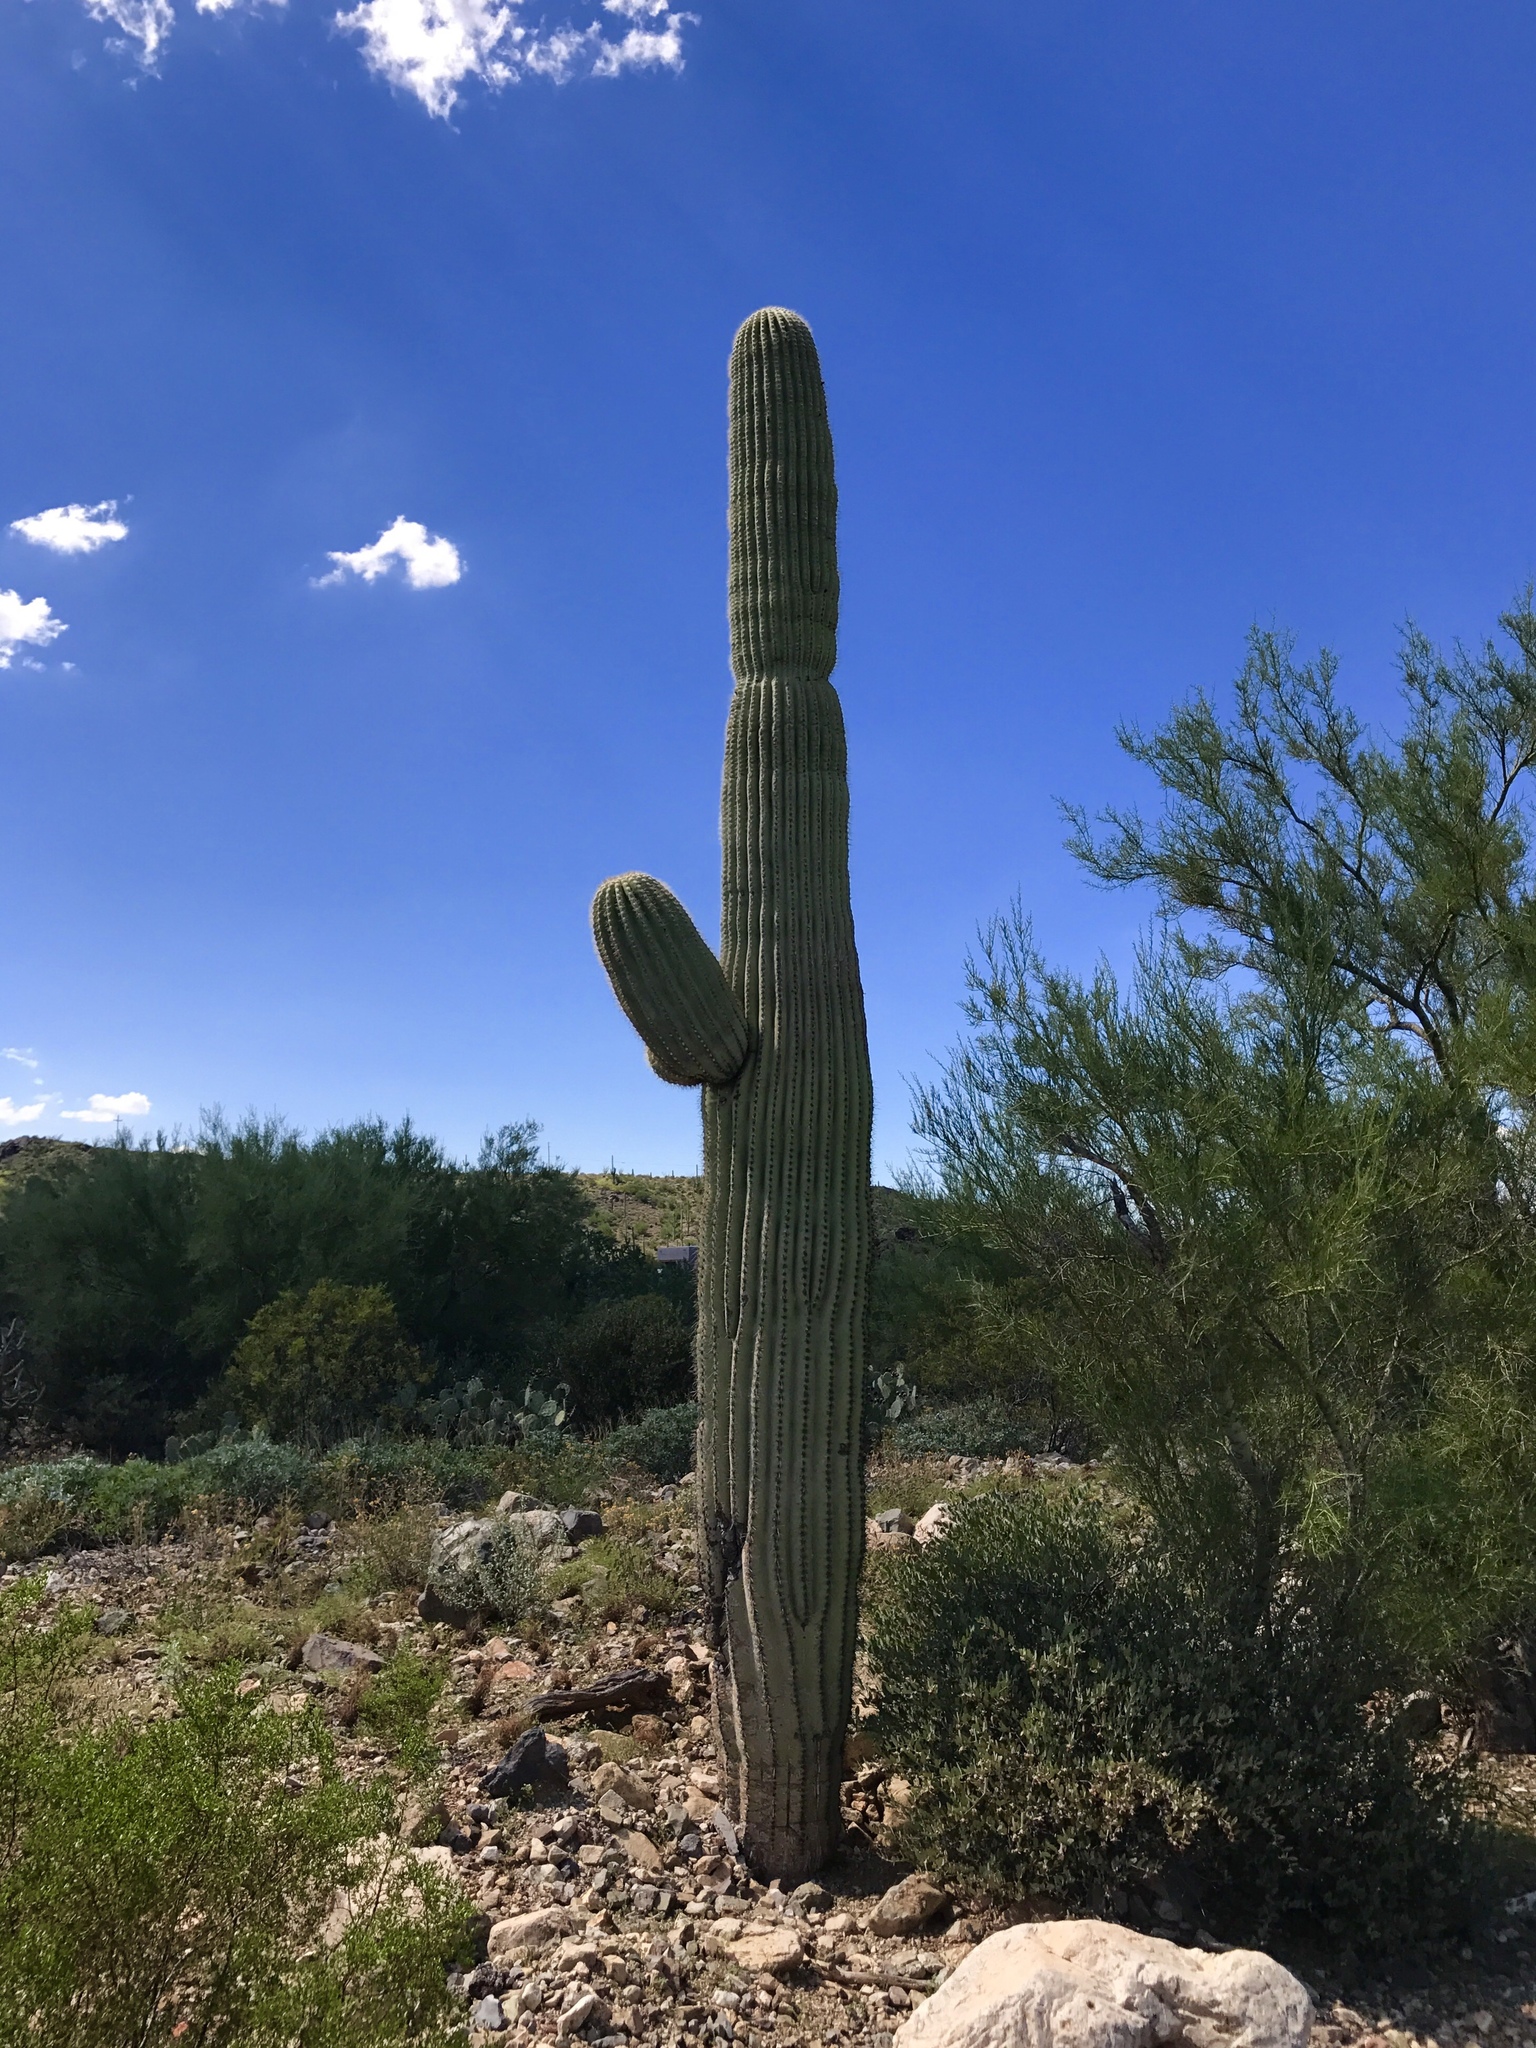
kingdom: Plantae
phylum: Tracheophyta
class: Magnoliopsida
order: Caryophyllales
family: Cactaceae
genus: Carnegiea
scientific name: Carnegiea gigantea
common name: Saguaro
